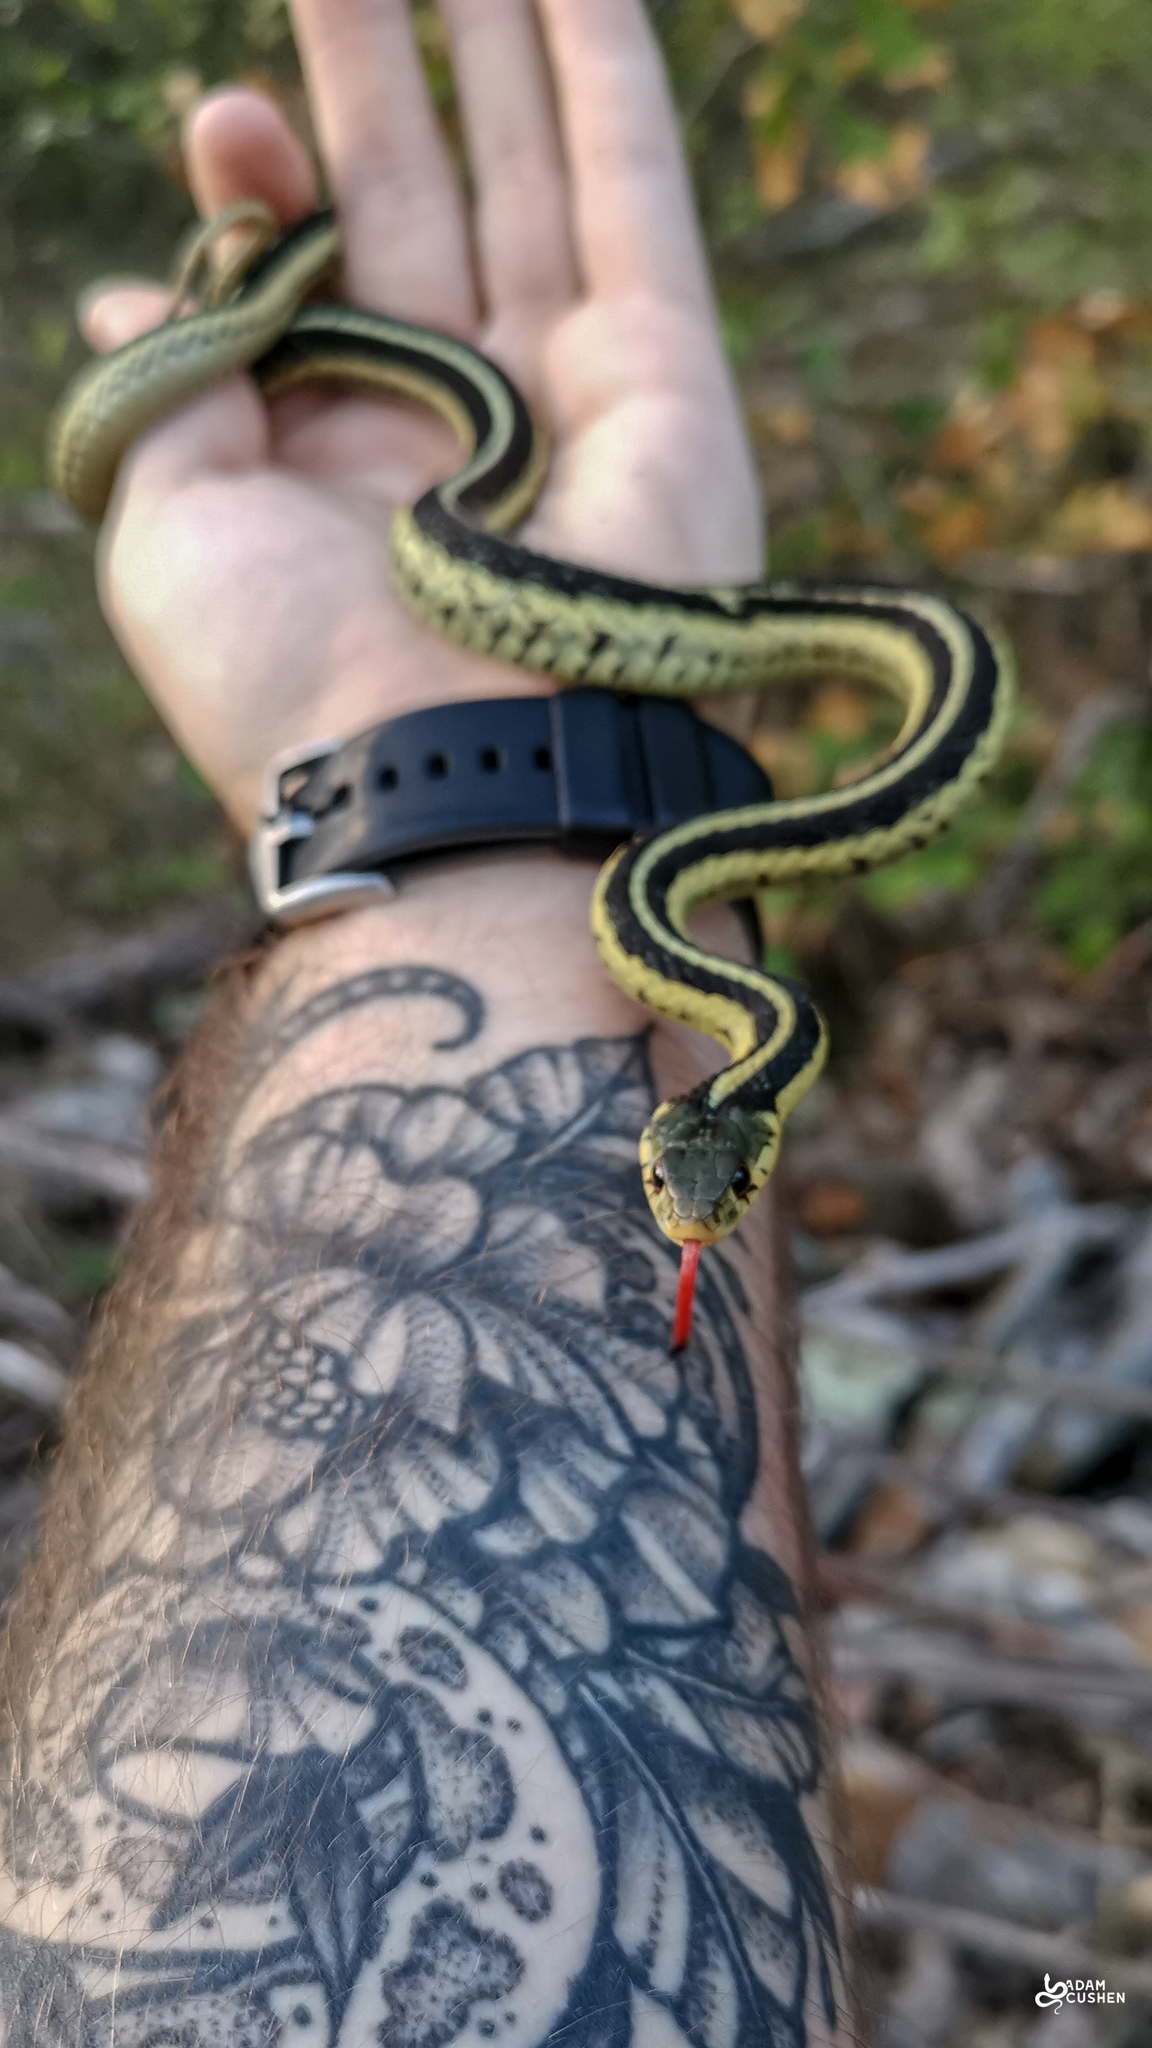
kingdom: Animalia
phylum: Chordata
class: Squamata
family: Colubridae
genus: Thamnophis
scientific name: Thamnophis sirtalis
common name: Common garter snake
